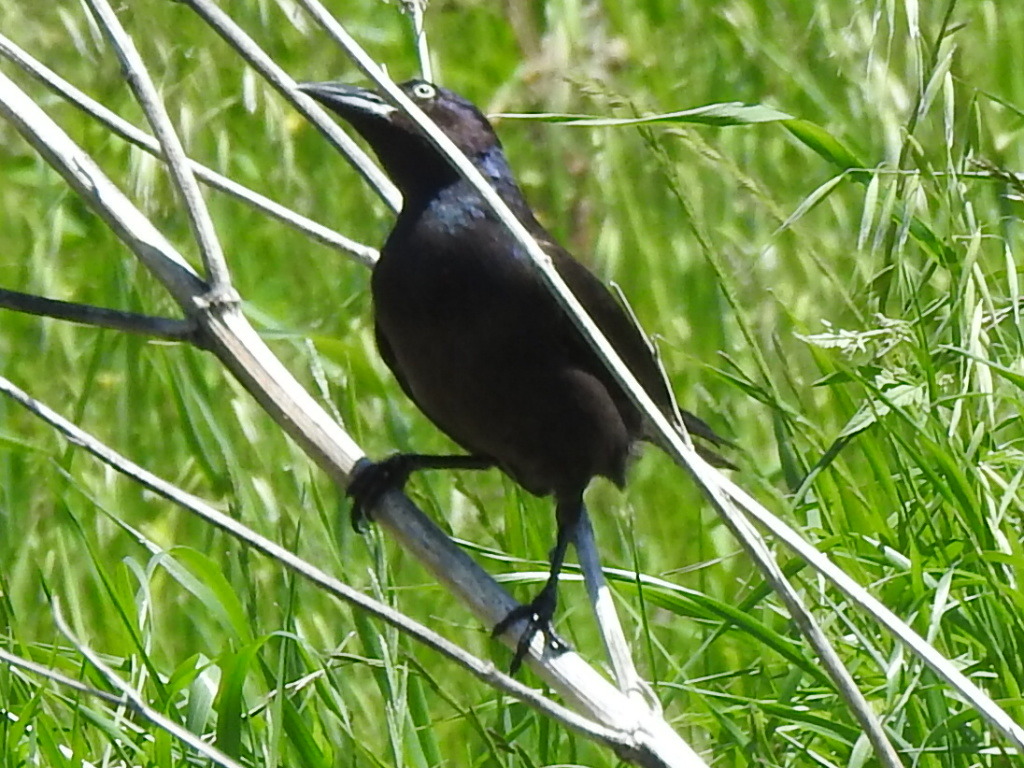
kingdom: Animalia
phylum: Chordata
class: Aves
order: Passeriformes
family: Icteridae
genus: Quiscalus
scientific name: Quiscalus quiscula
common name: Common grackle
